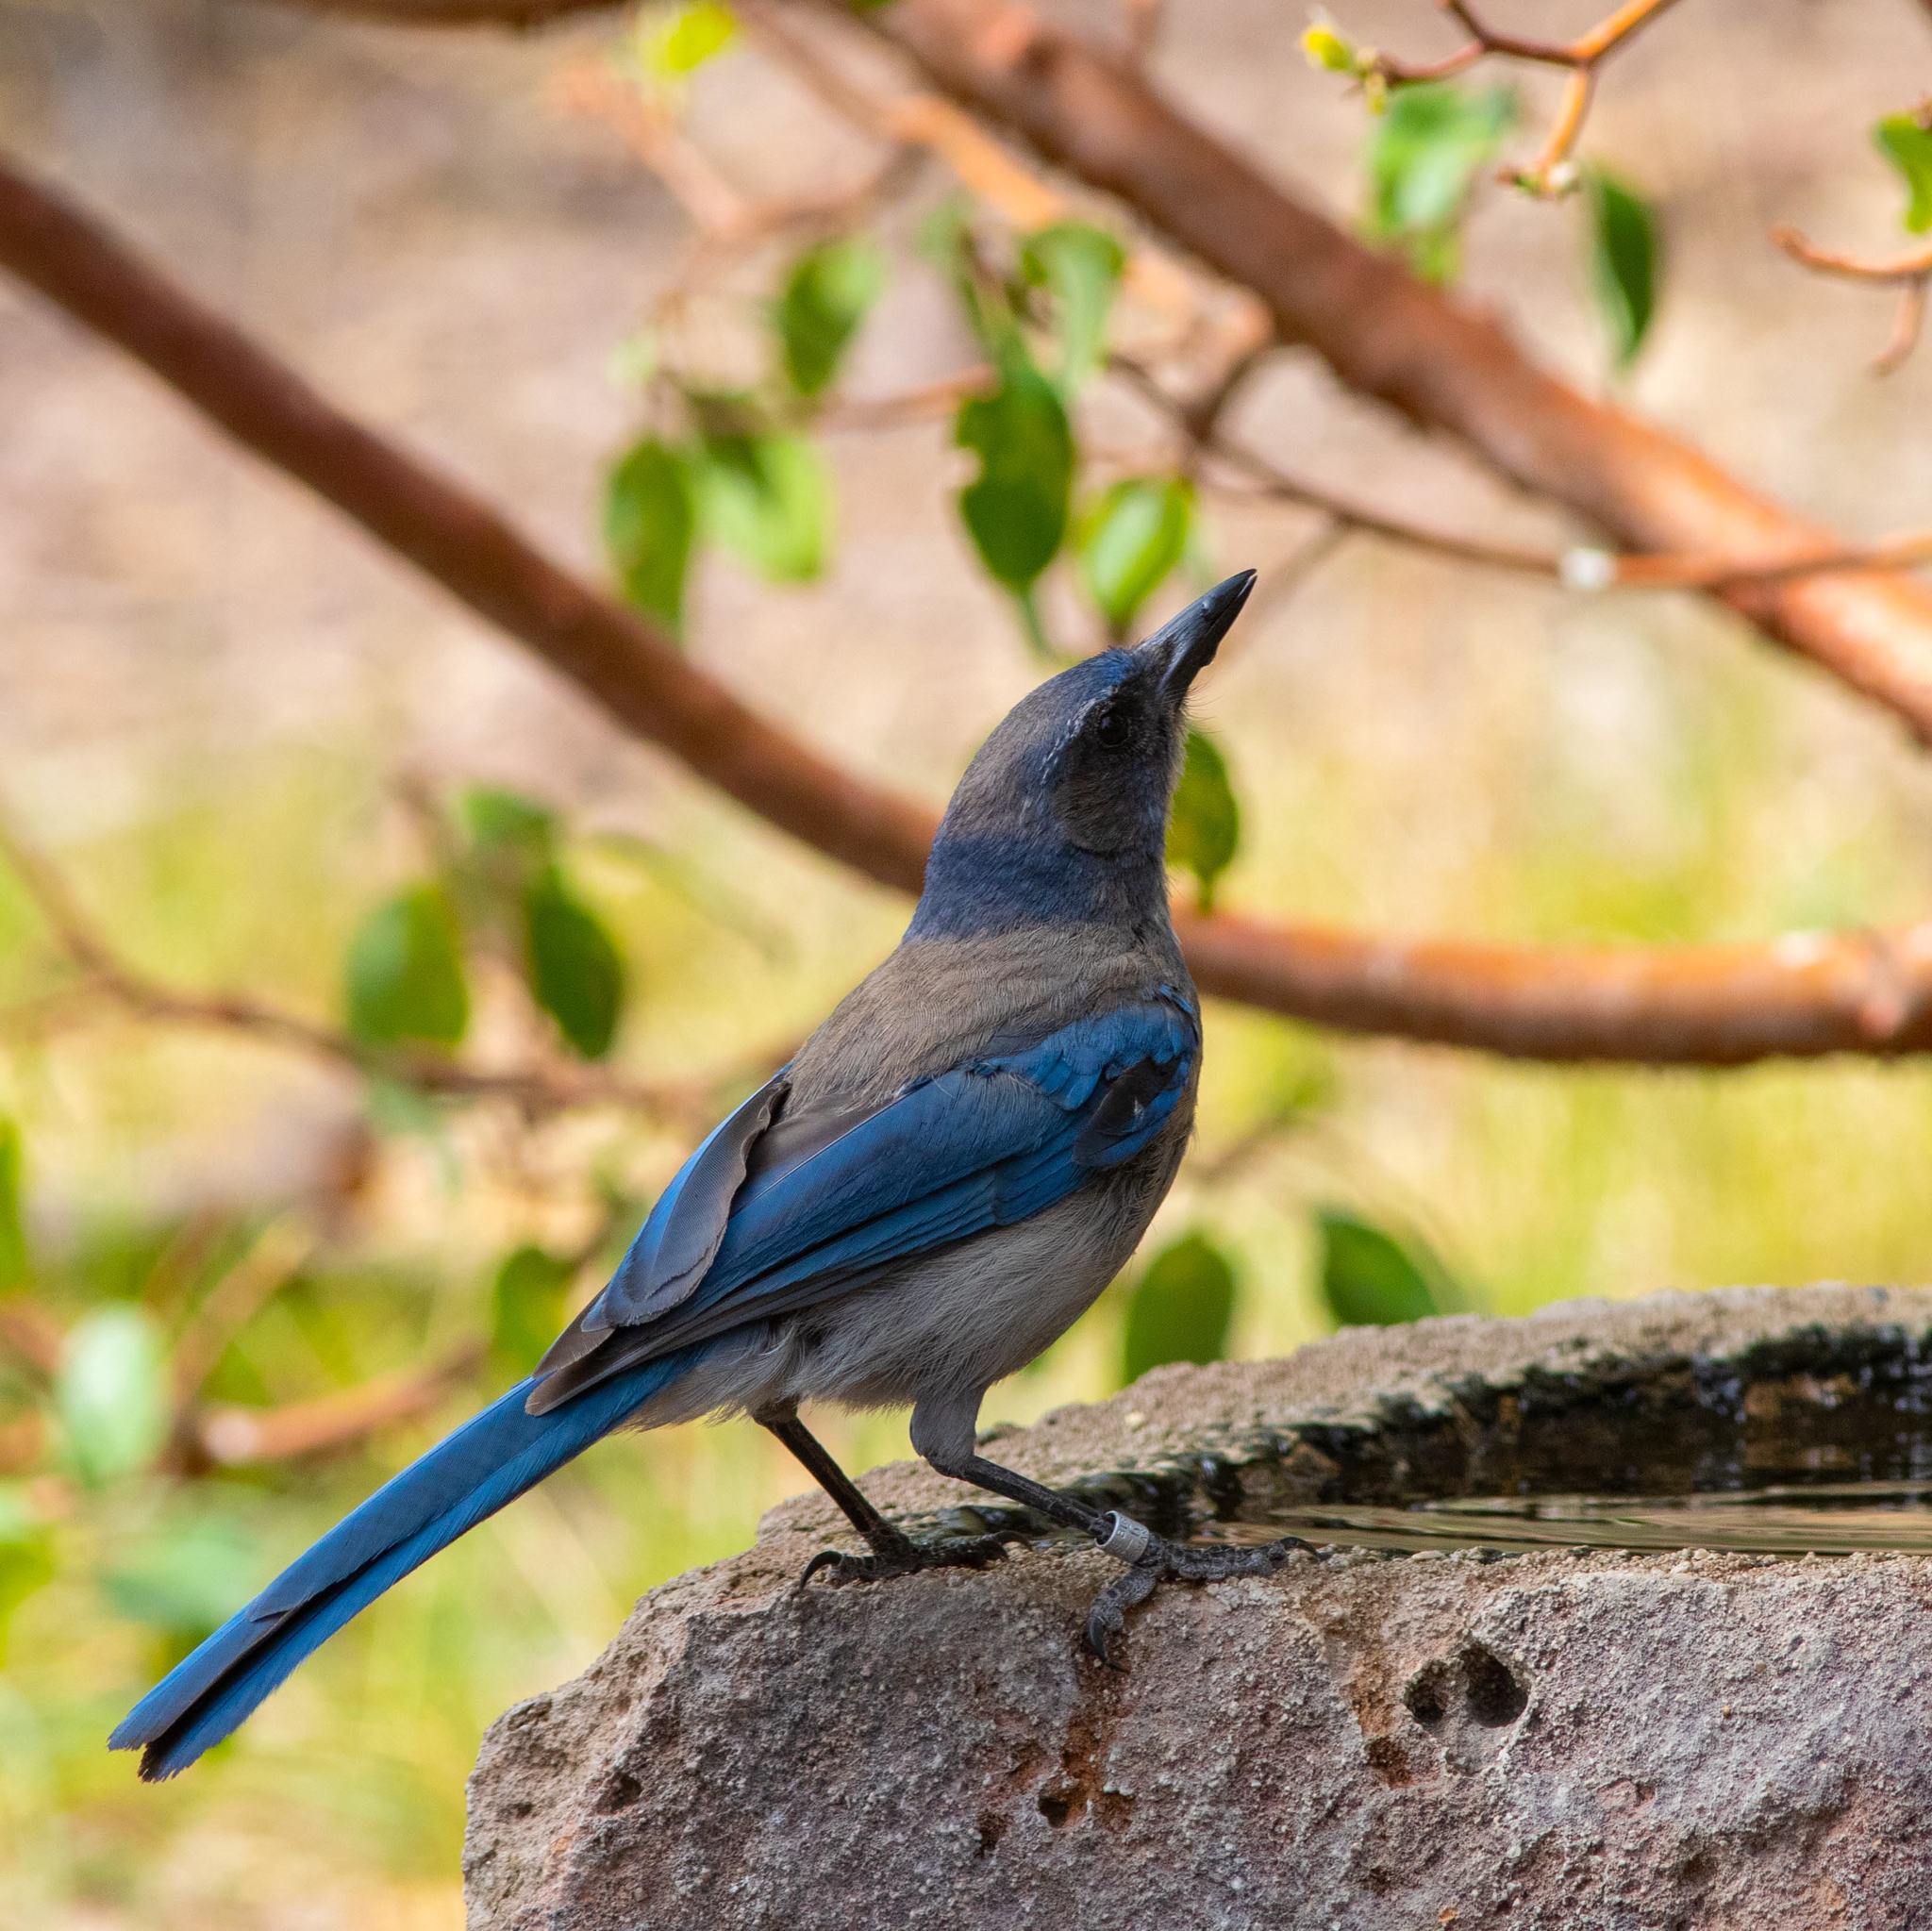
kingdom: Animalia
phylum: Chordata
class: Aves
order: Passeriformes
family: Corvidae
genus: Aphelocoma
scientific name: Aphelocoma woodhouseii
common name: Woodhouse's scrub-jay
